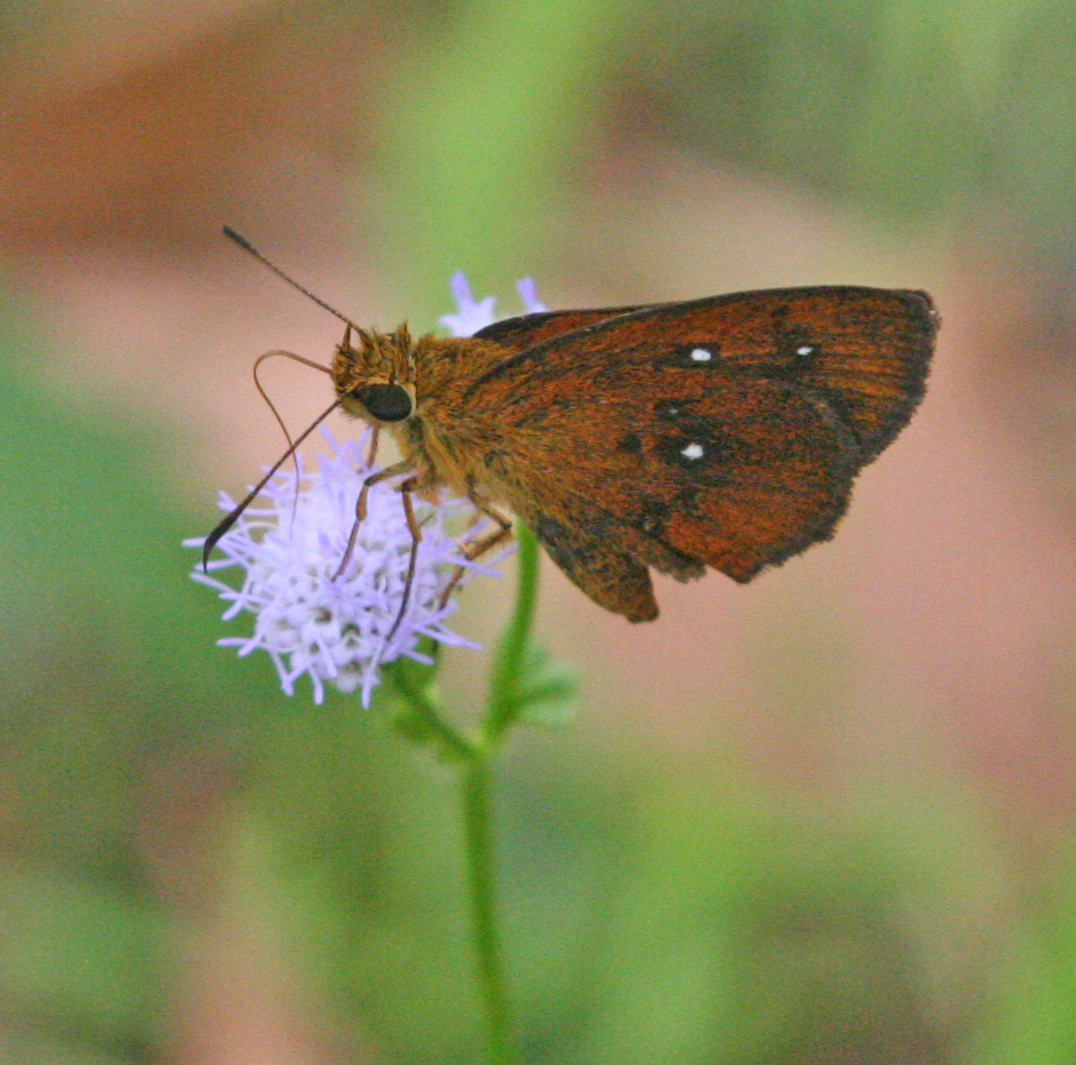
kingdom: Animalia
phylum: Arthropoda
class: Insecta
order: Lepidoptera
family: Hesperiidae
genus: Iambrix
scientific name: Iambrix salsala
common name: Chestnut bob
